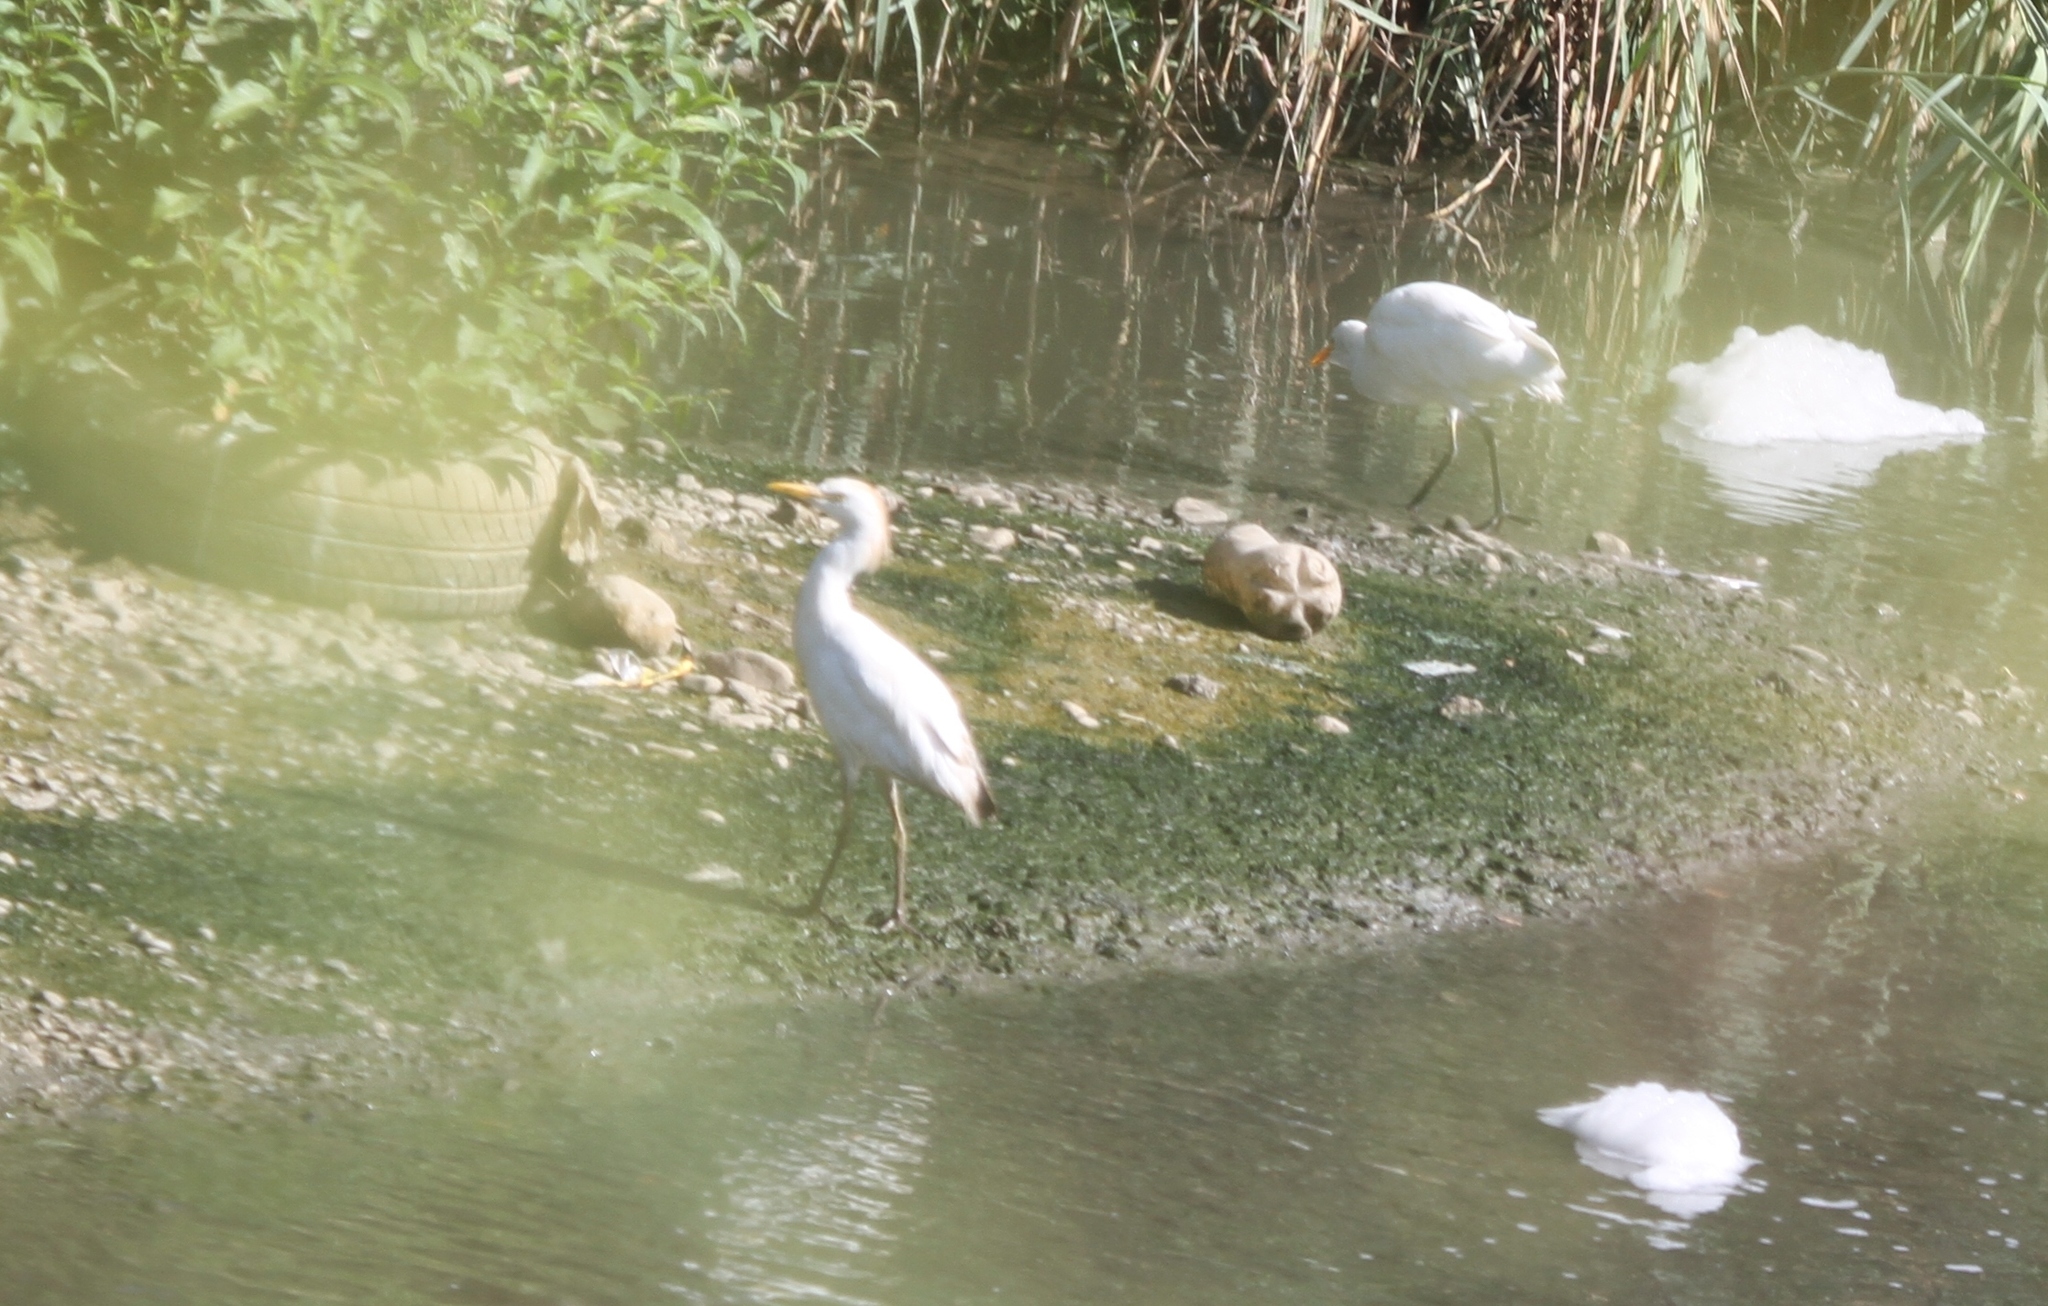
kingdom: Animalia
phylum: Chordata
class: Aves
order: Pelecaniformes
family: Ardeidae
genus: Bubulcus
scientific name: Bubulcus ibis
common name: Cattle egret
